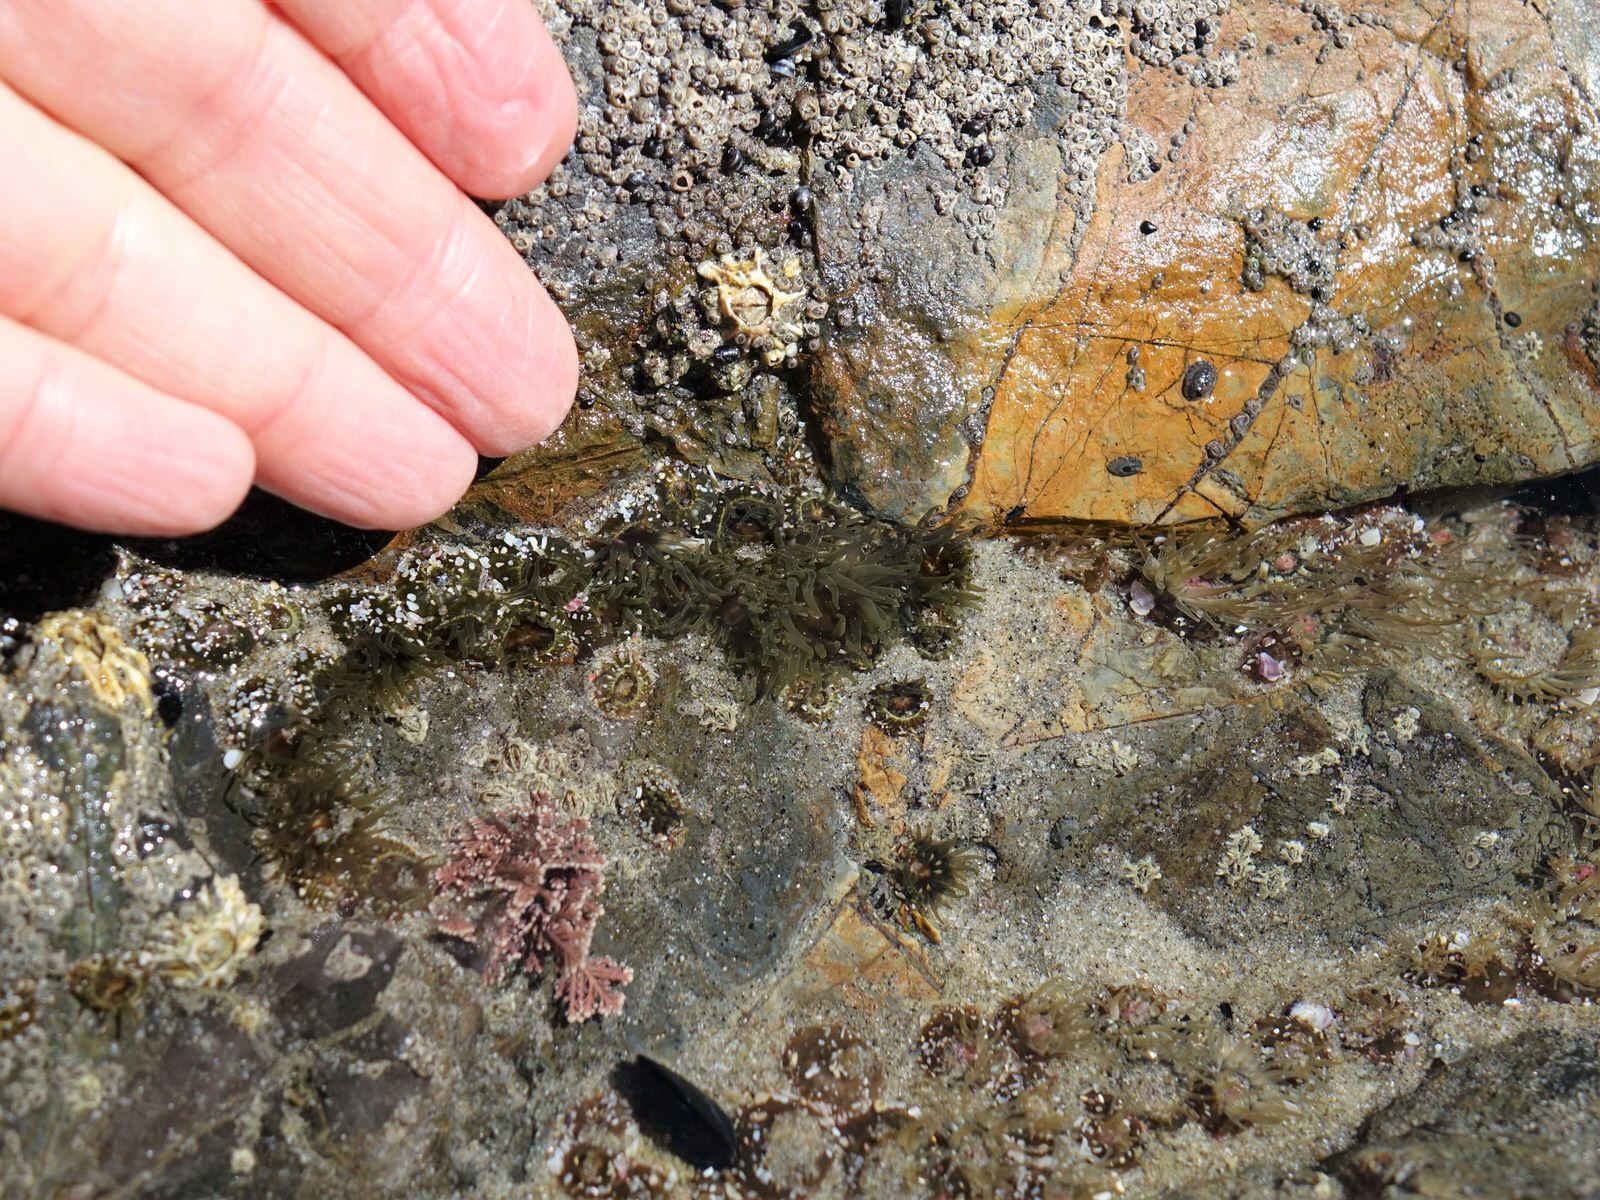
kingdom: Animalia
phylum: Cnidaria
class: Anthozoa
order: Actiniaria
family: Actiniidae
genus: Isactinia
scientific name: Isactinia olivacea
